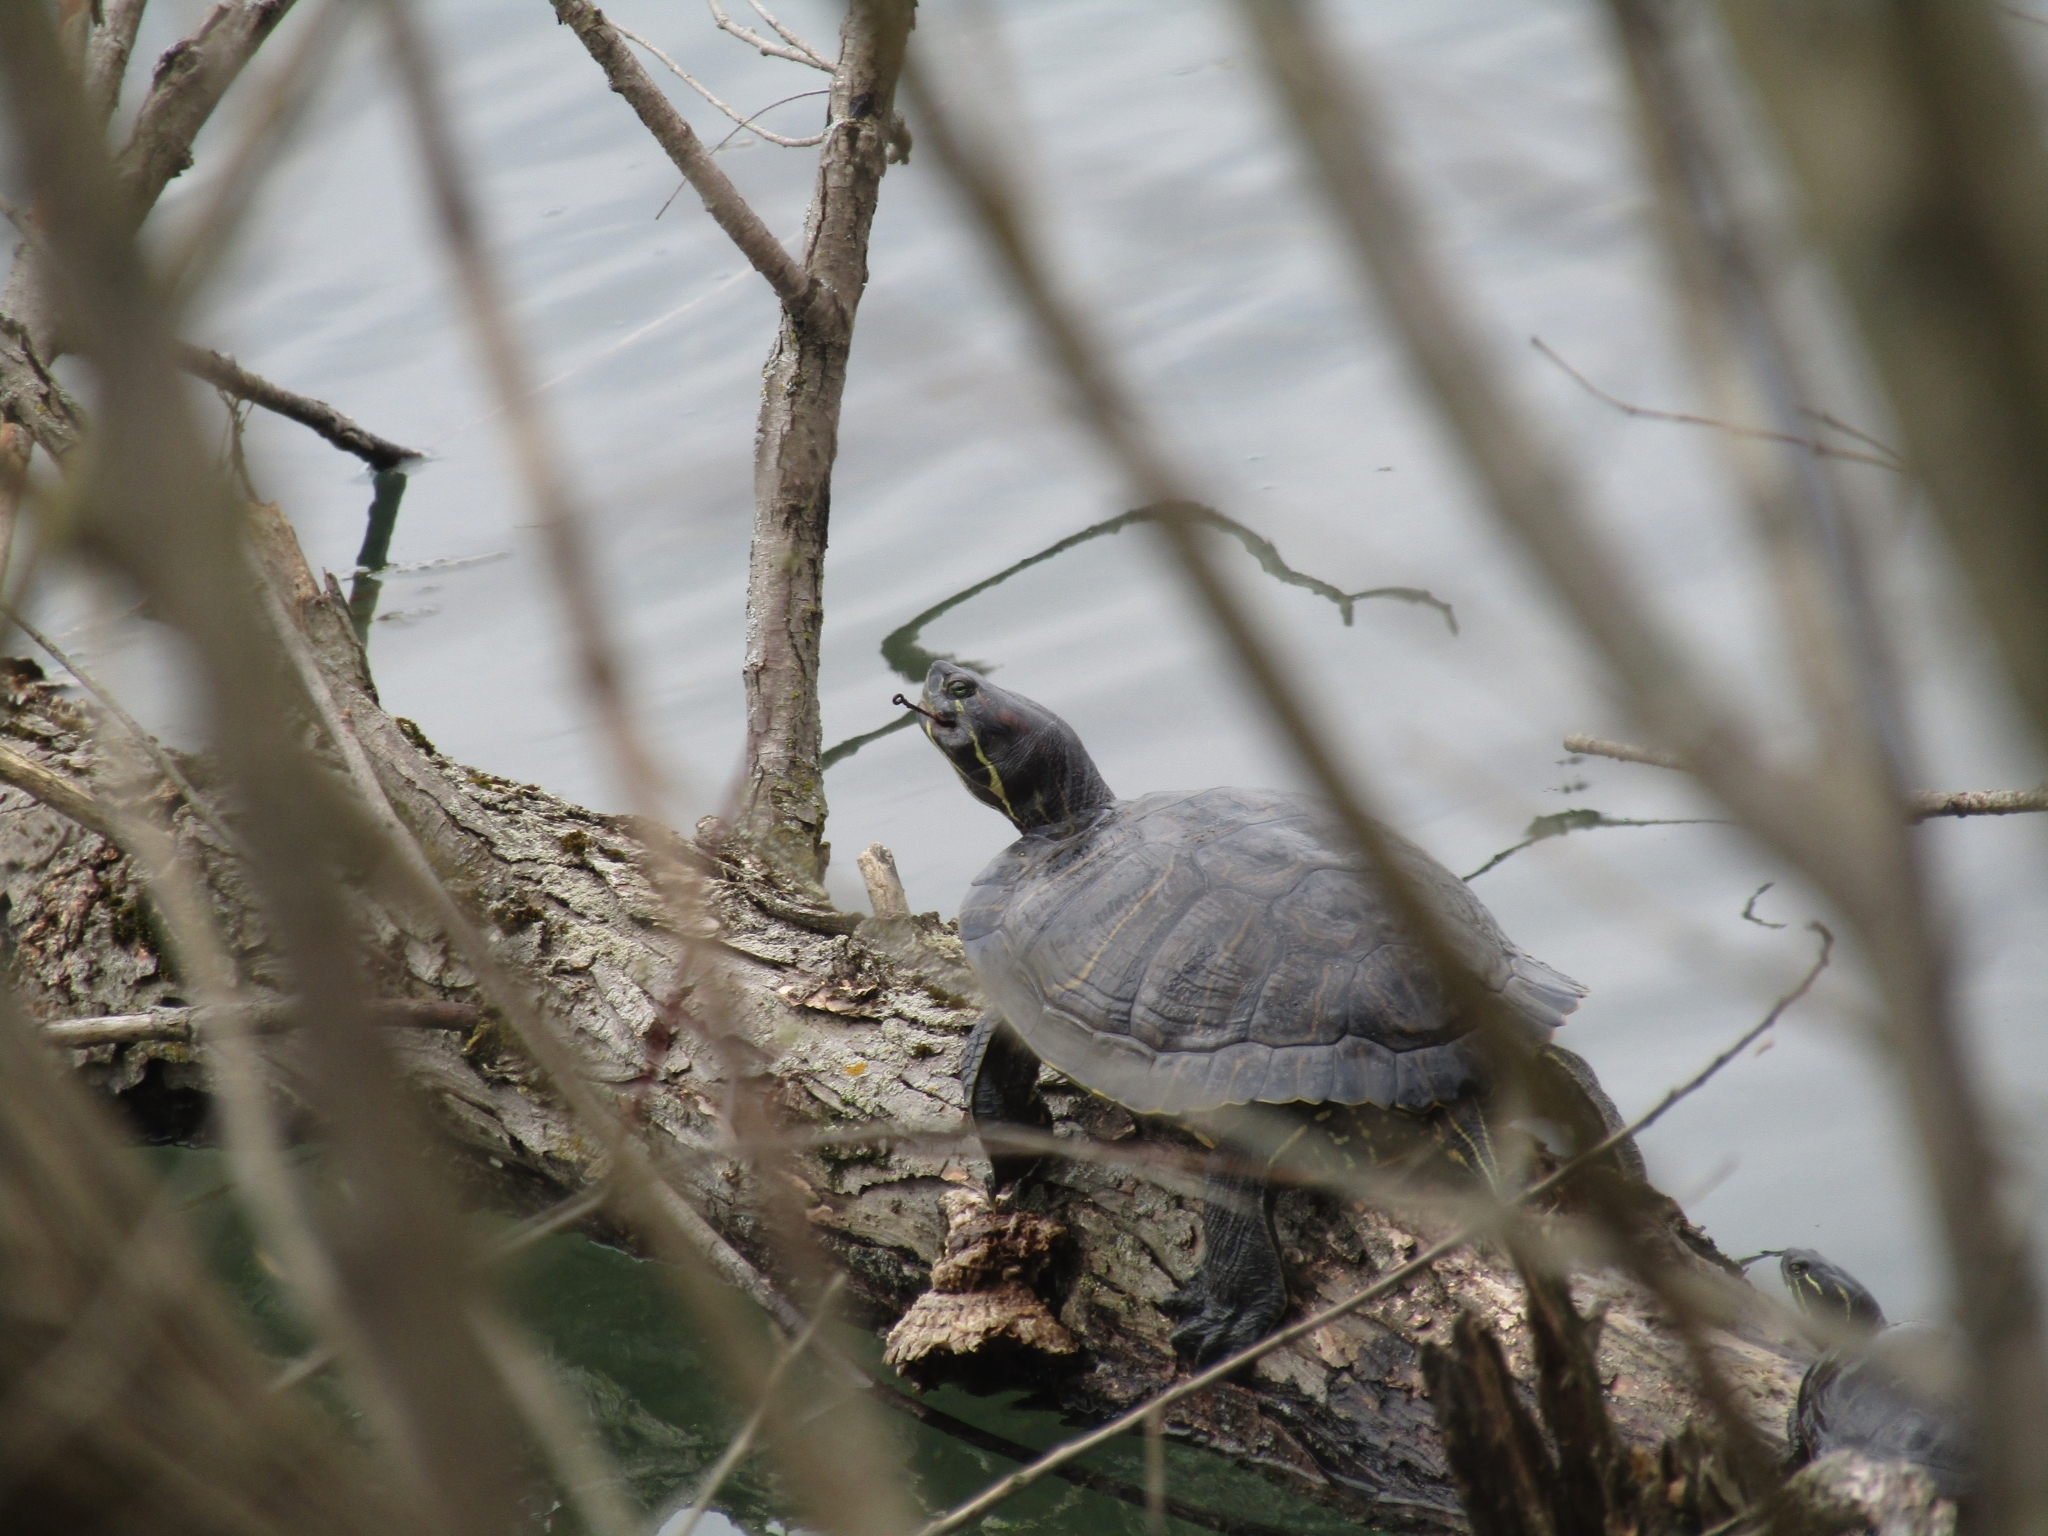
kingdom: Animalia
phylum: Chordata
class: Testudines
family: Emydidae
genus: Trachemys
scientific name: Trachemys scripta
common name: Slider
